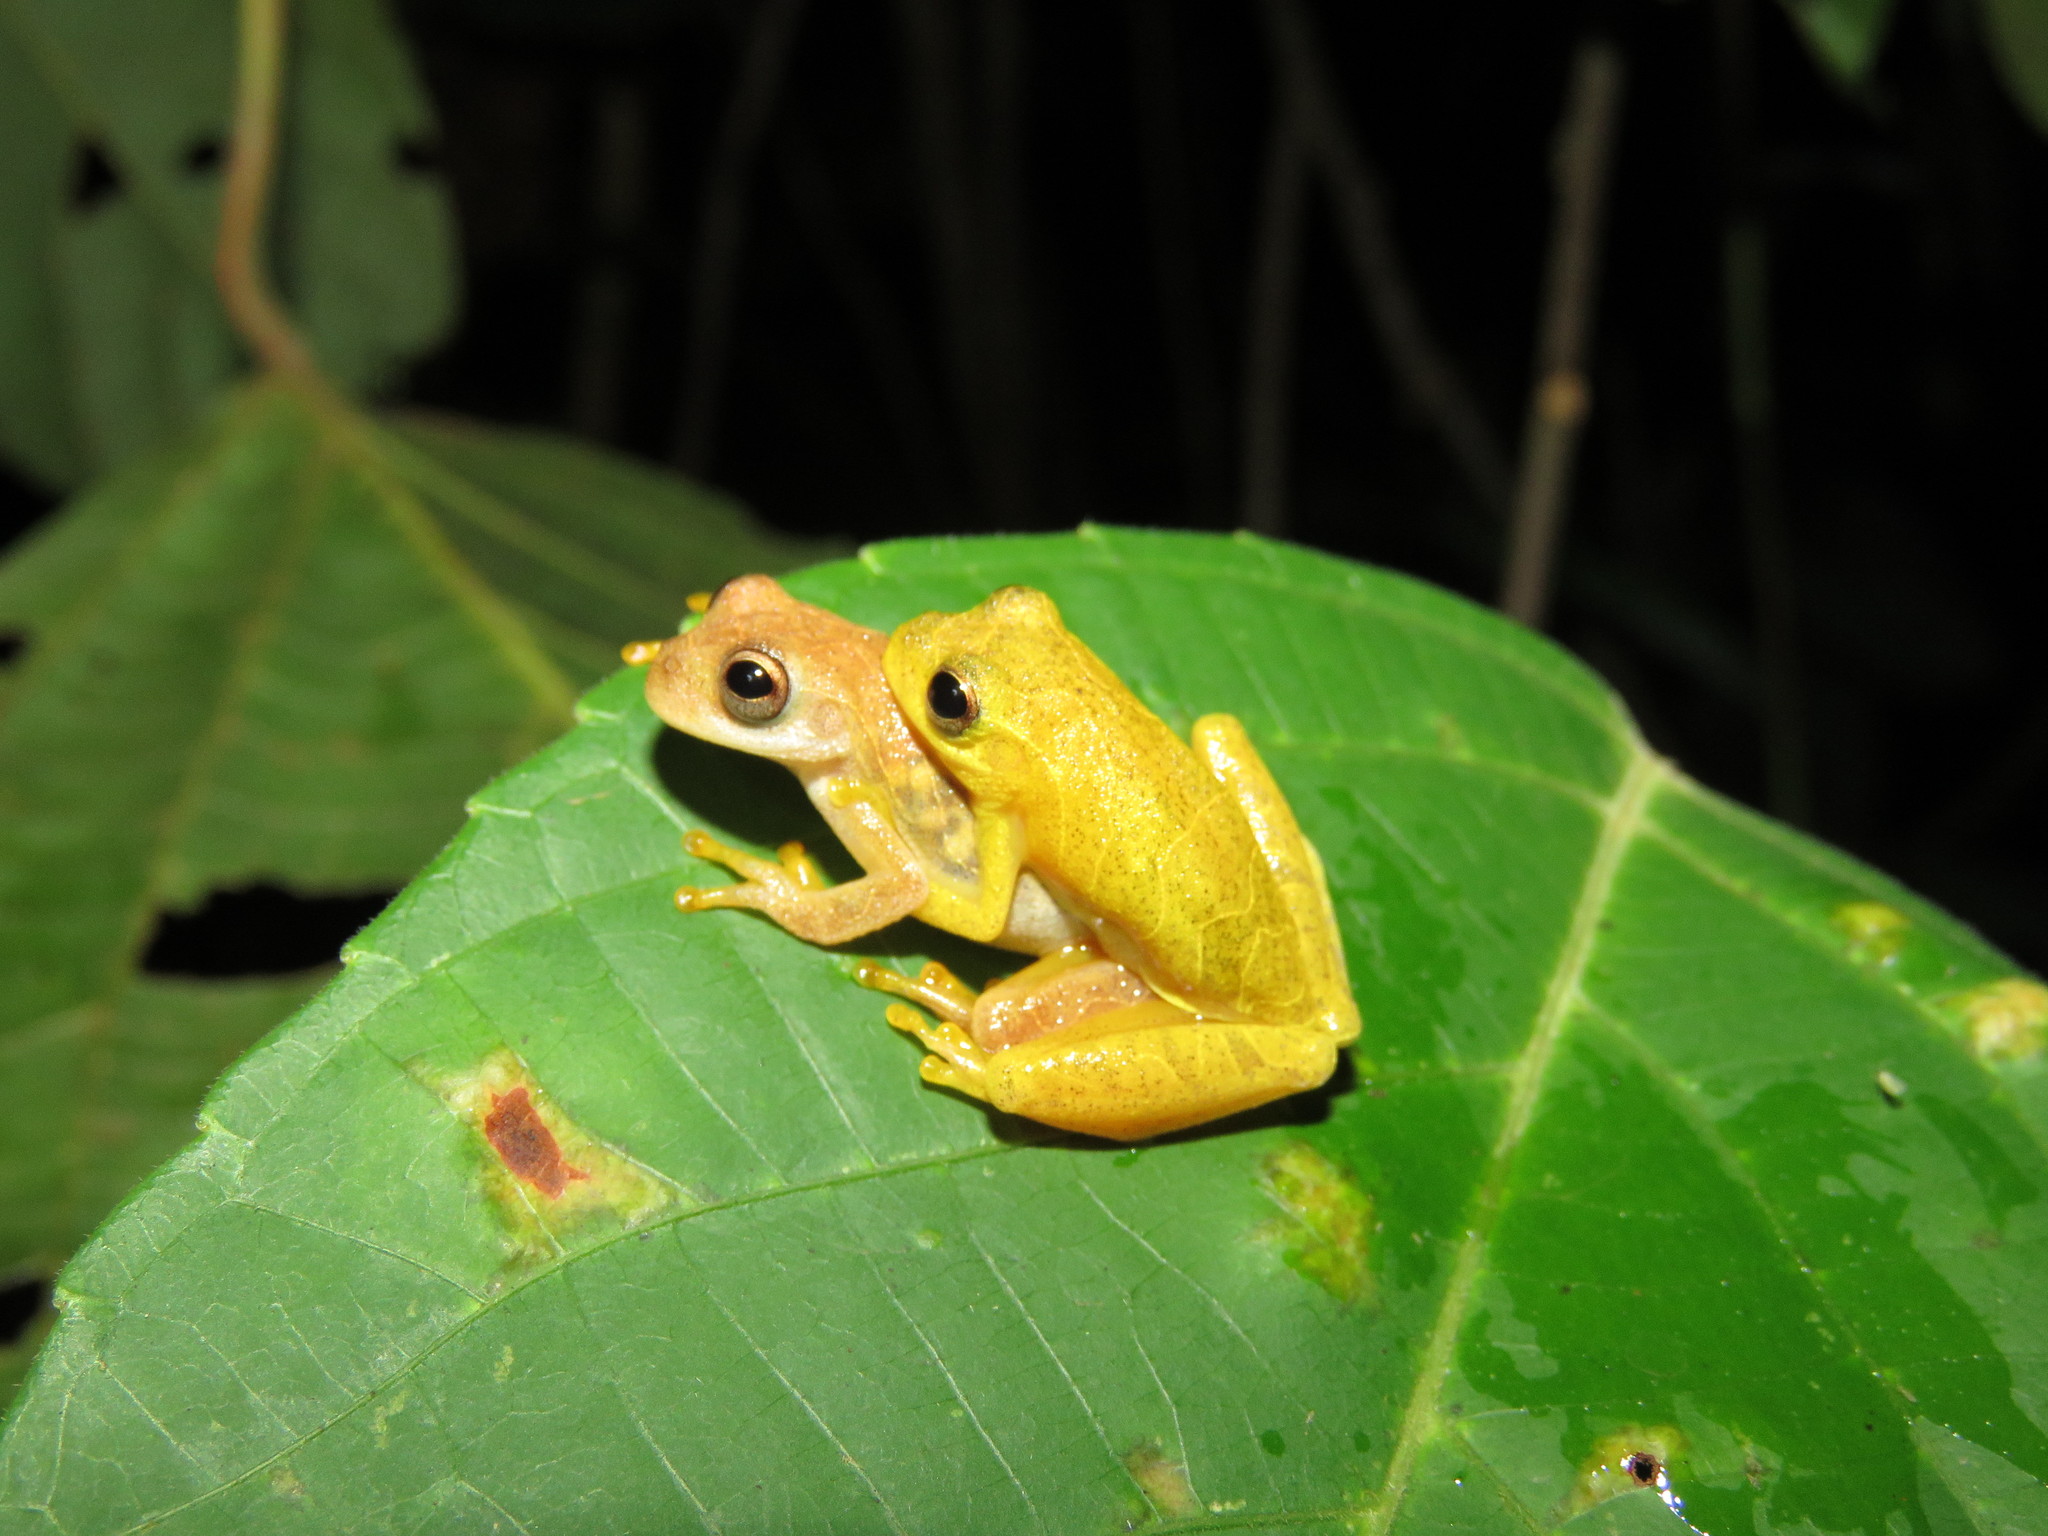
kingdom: Animalia
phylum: Chordata
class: Amphibia
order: Anura
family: Hylidae
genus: Dendropsophus
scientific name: Dendropsophus minutus
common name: Lesser treefrog
